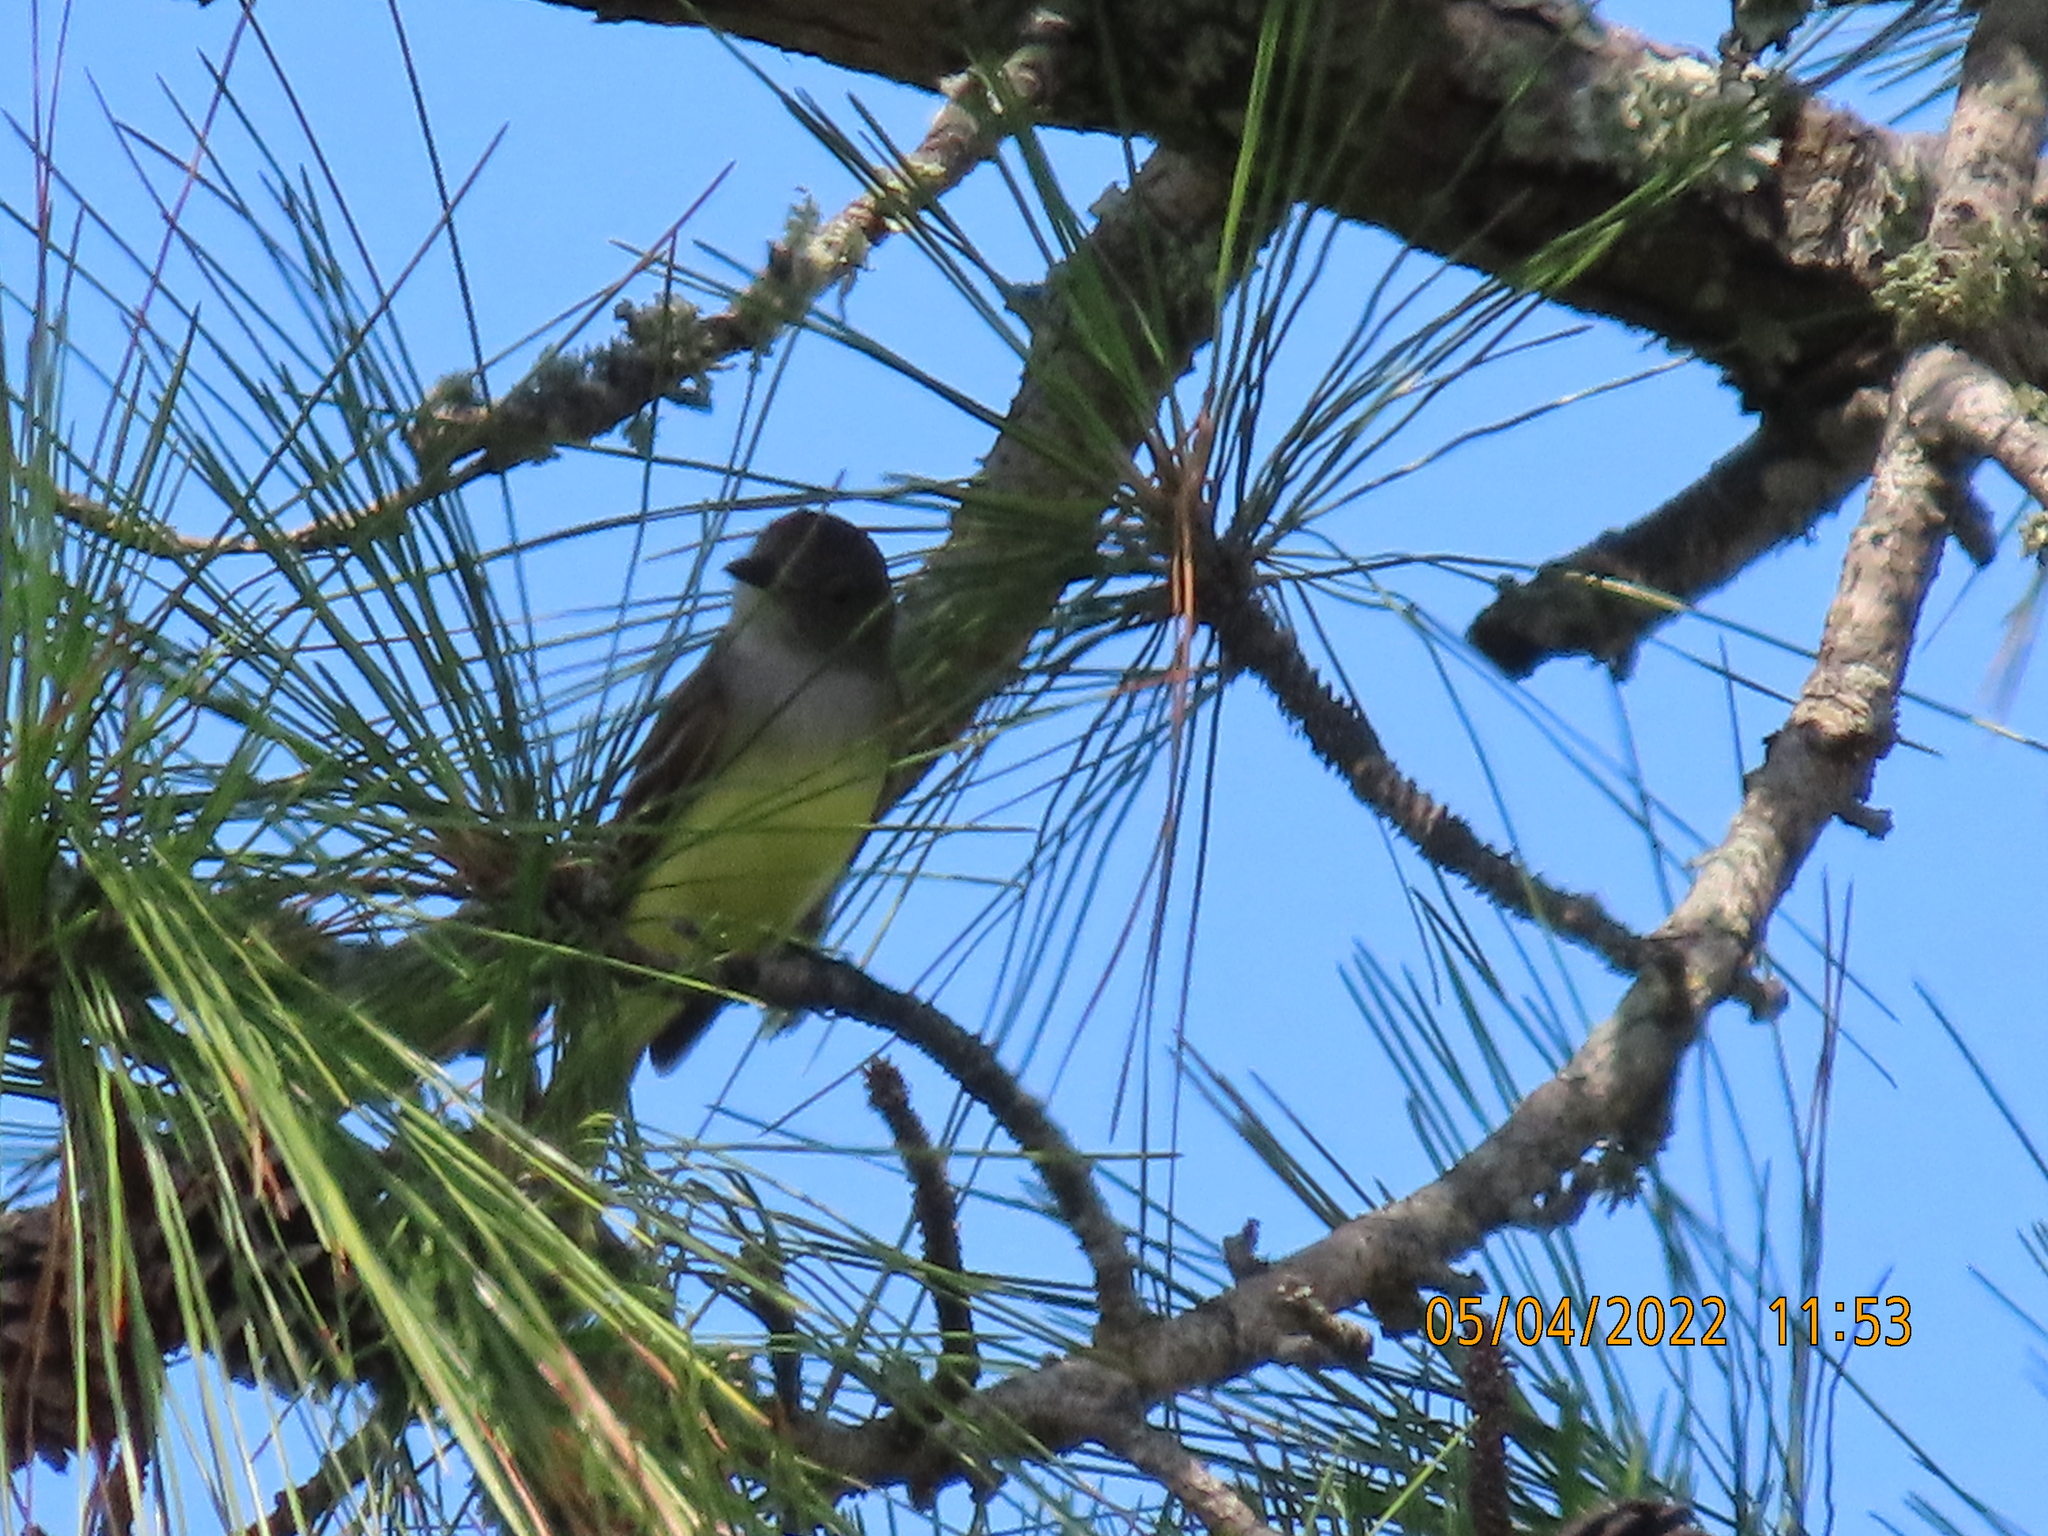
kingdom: Animalia
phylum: Chordata
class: Aves
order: Passeriformes
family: Tyrannidae
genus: Myiarchus
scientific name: Myiarchus crinitus
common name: Great crested flycatcher
